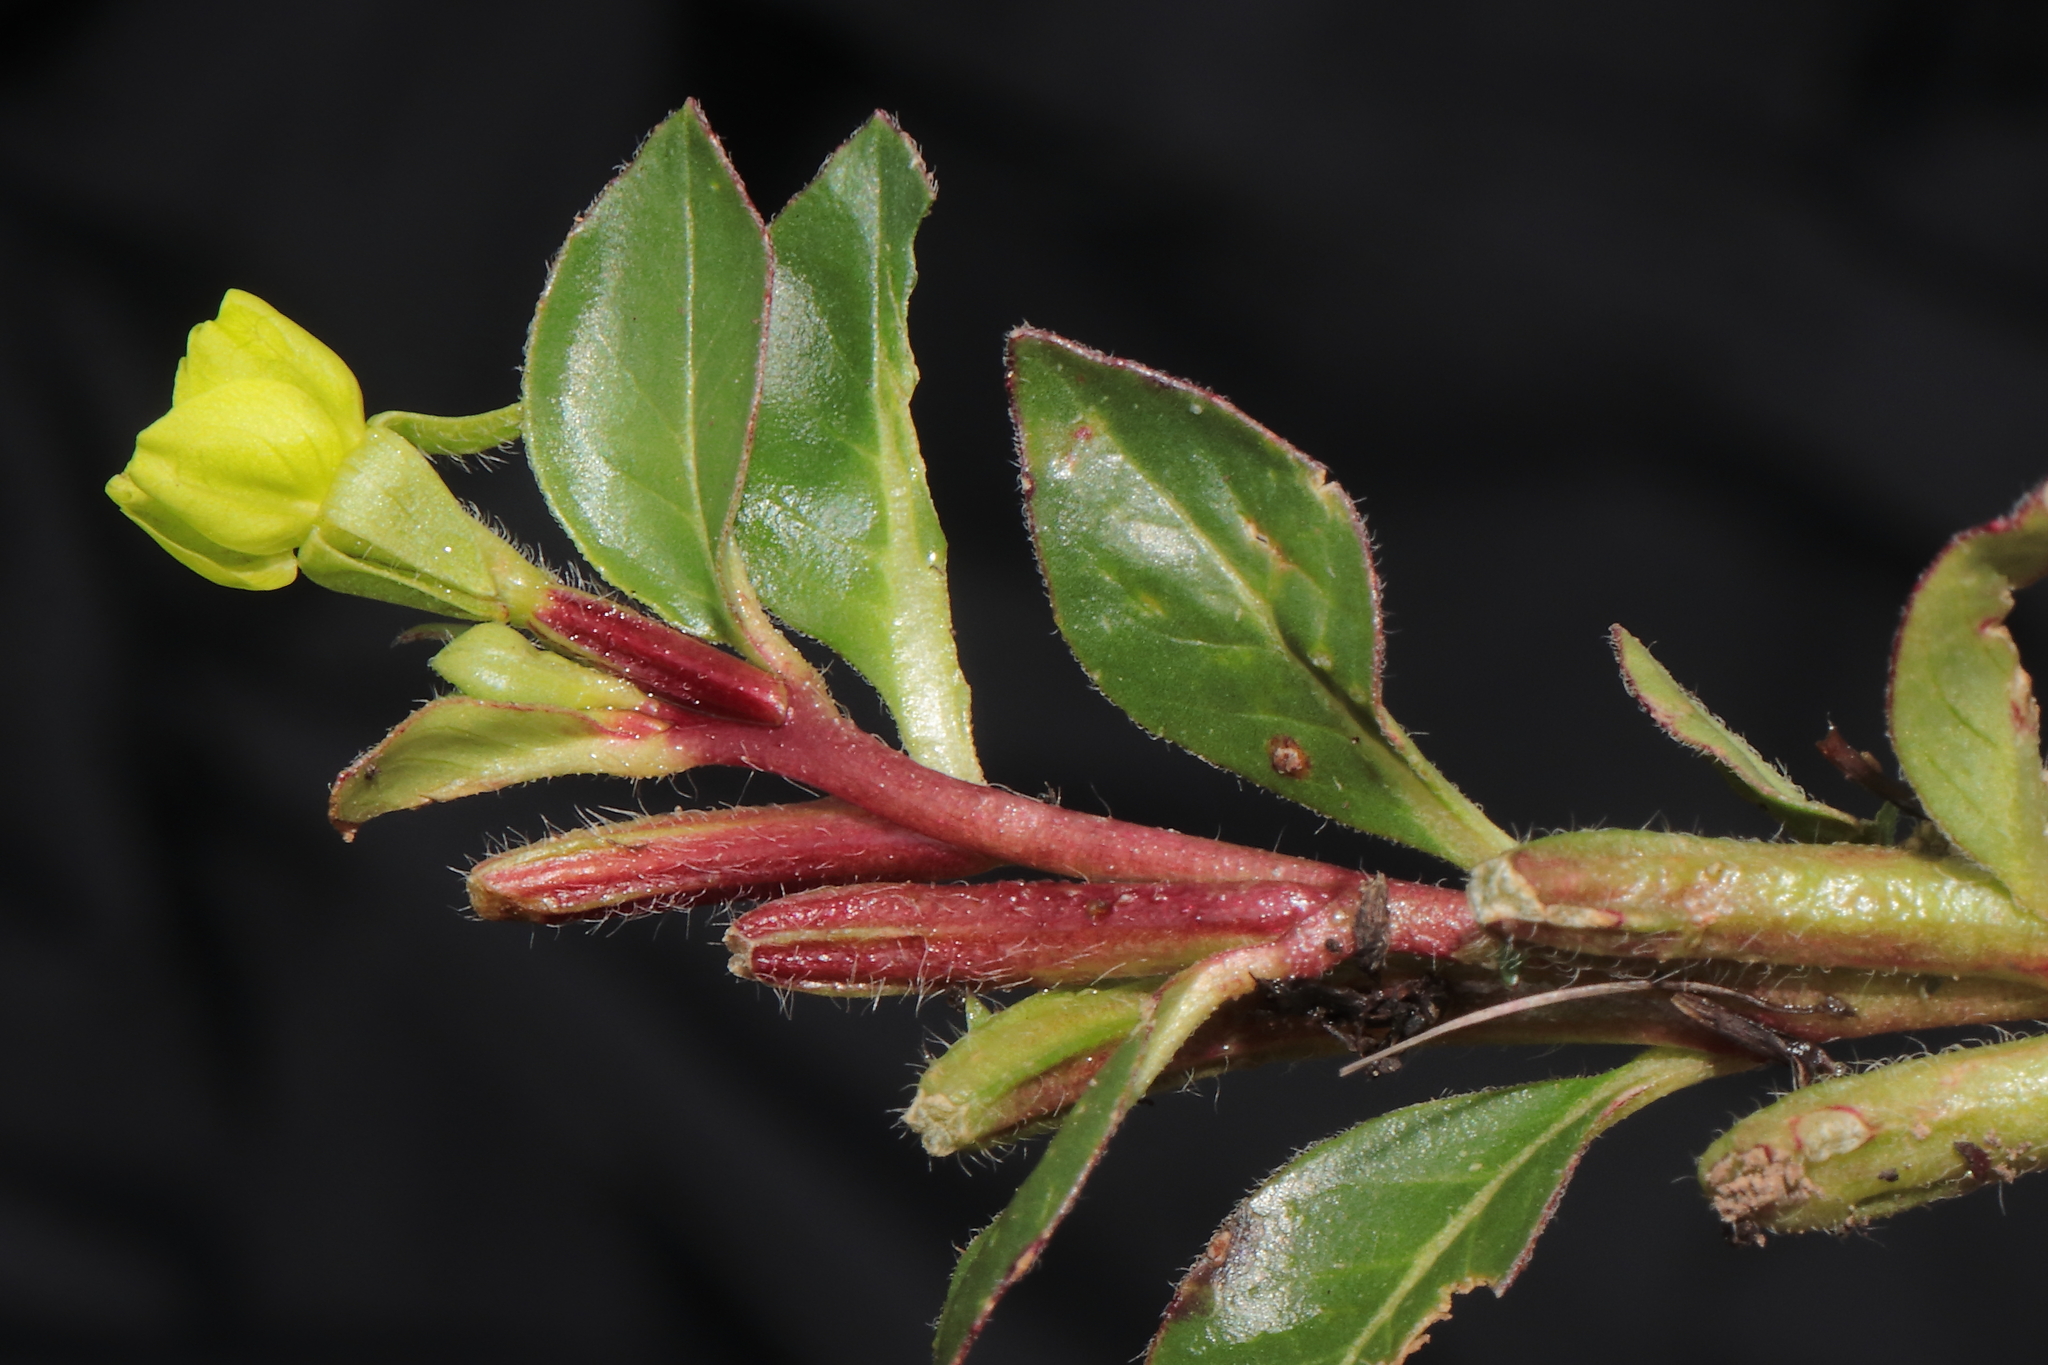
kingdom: Plantae
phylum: Tracheophyta
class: Magnoliopsida
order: Myrtales
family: Onagraceae
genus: Oenothera
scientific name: Oenothera multicaulis
